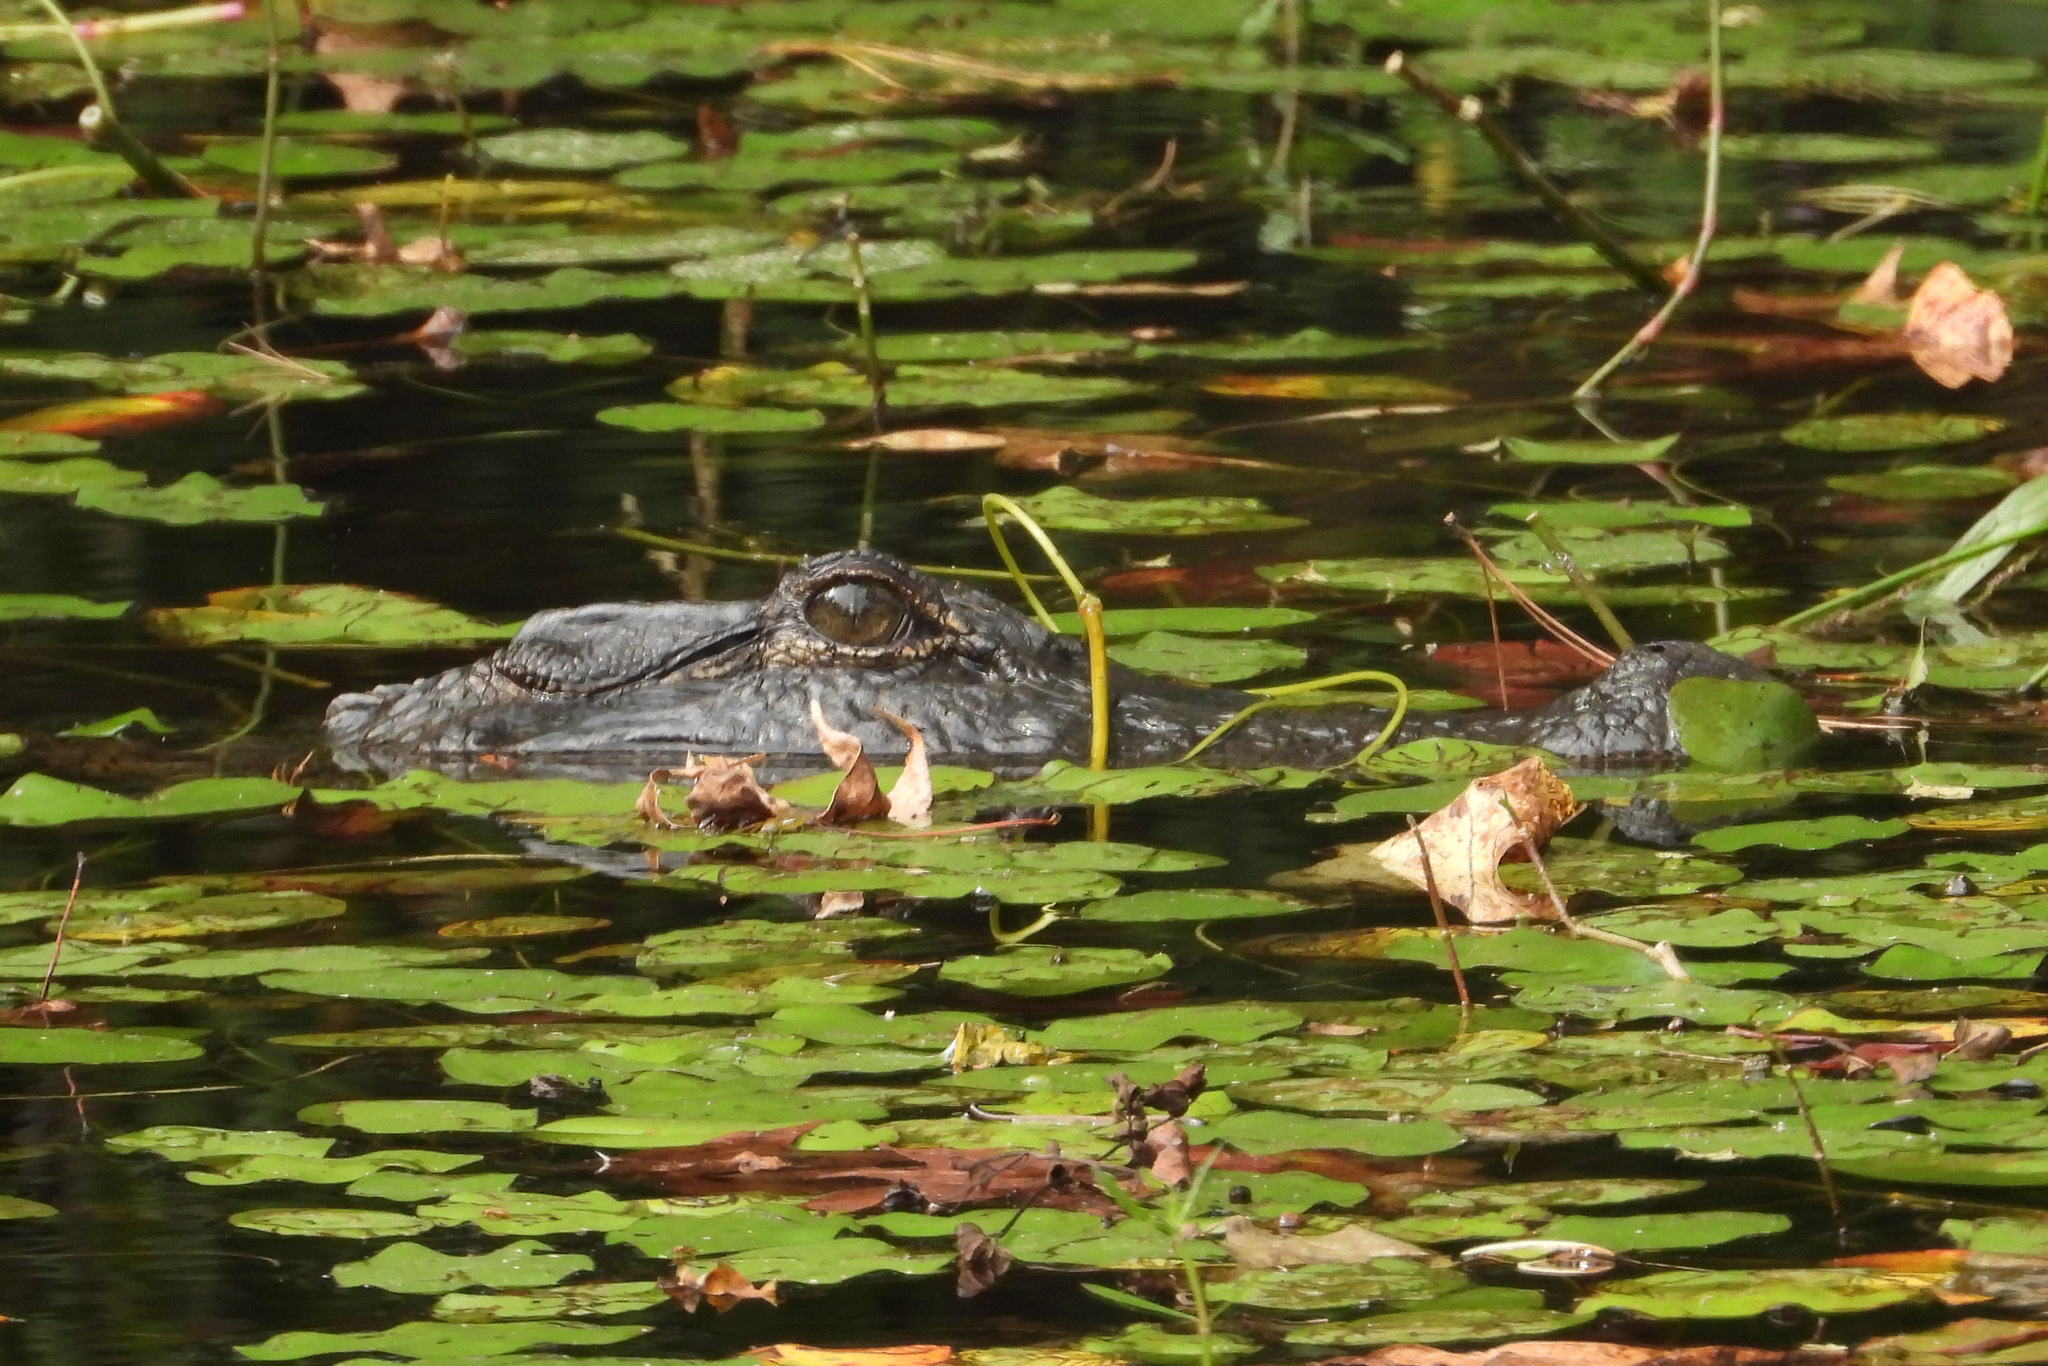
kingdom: Animalia
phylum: Chordata
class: Crocodylia
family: Alligatoridae
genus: Alligator
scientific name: Alligator mississippiensis
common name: American alligator
